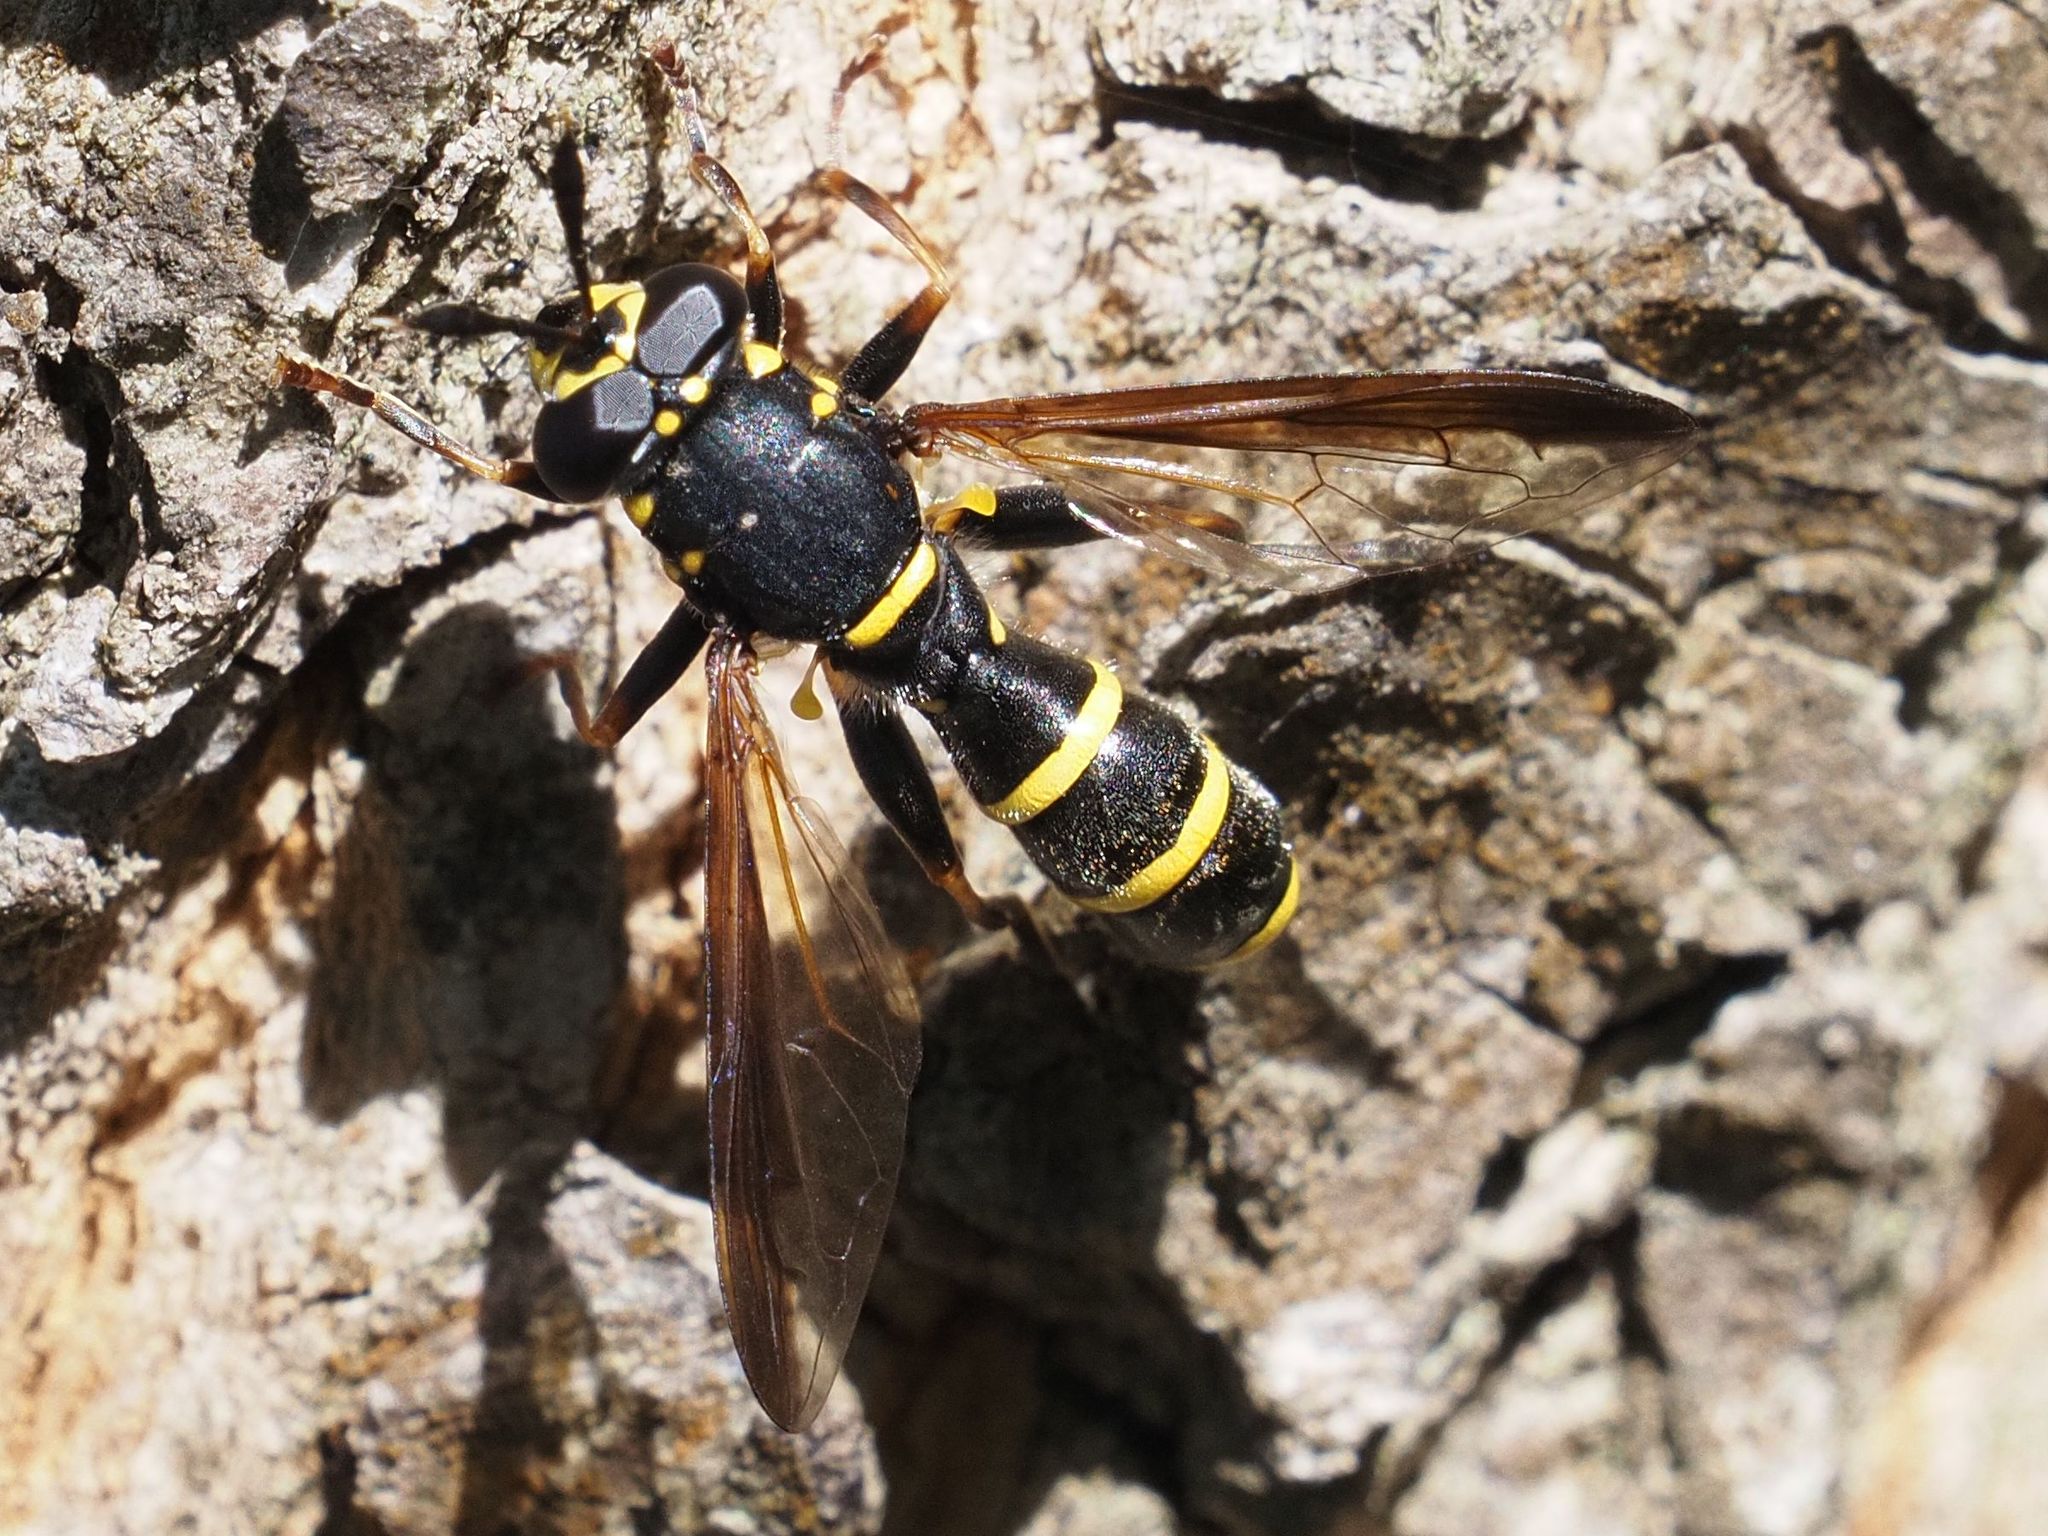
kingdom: Animalia
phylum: Arthropoda
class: Insecta
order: Diptera
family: Syrphidae
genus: Sphiximorpha
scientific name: Sphiximorpha subsessilis
